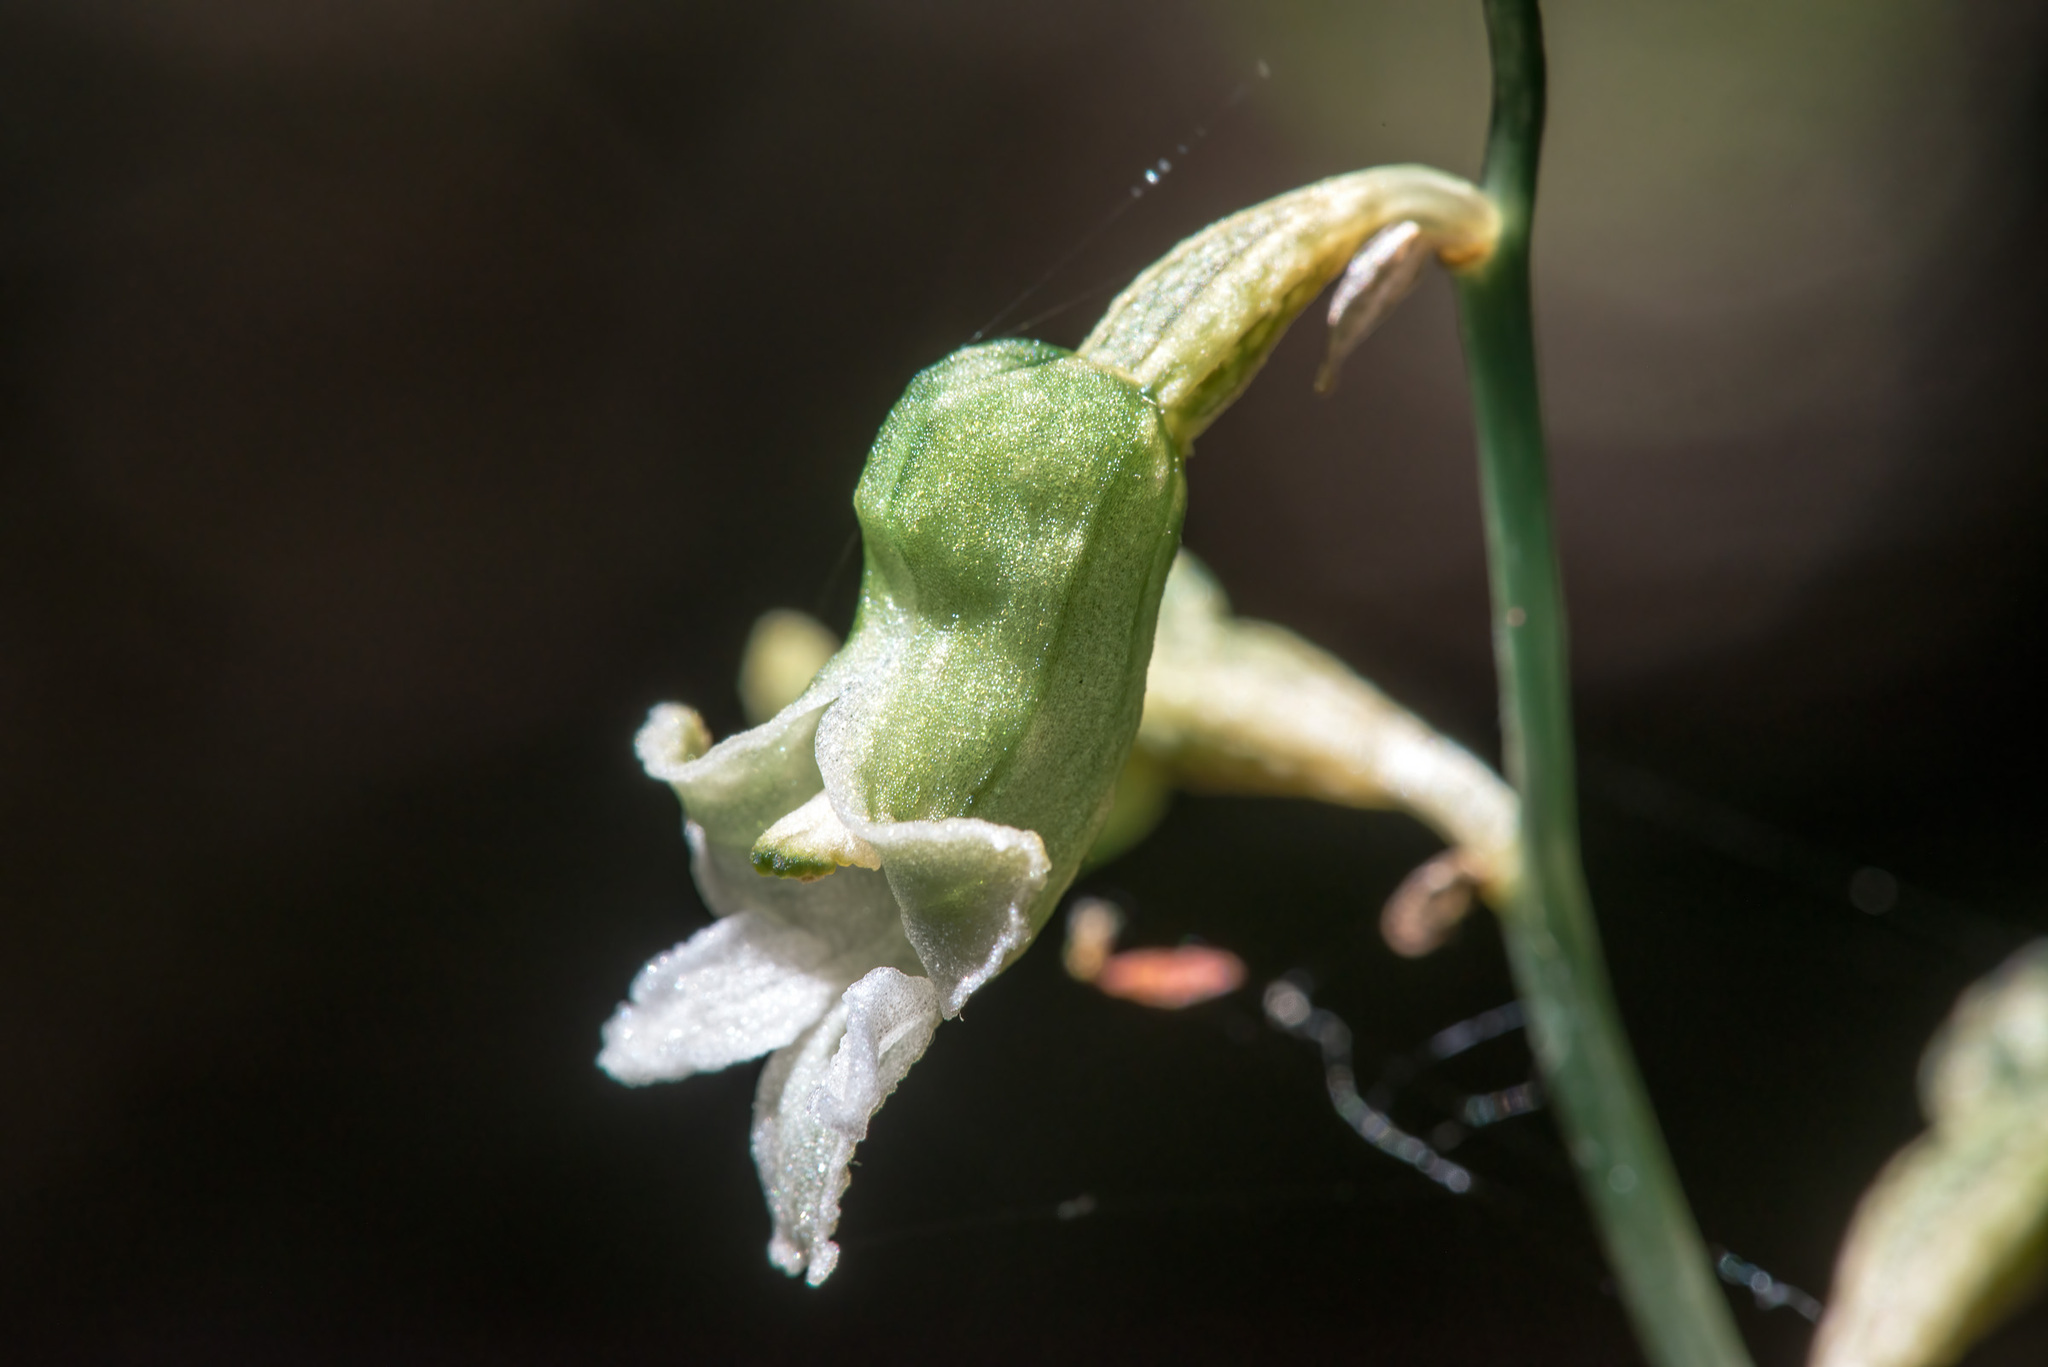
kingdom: Plantae
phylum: Tracheophyta
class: Liliopsida
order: Asparagales
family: Orchidaceae
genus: Gastrodia
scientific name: Gastrodia cunninghamii
